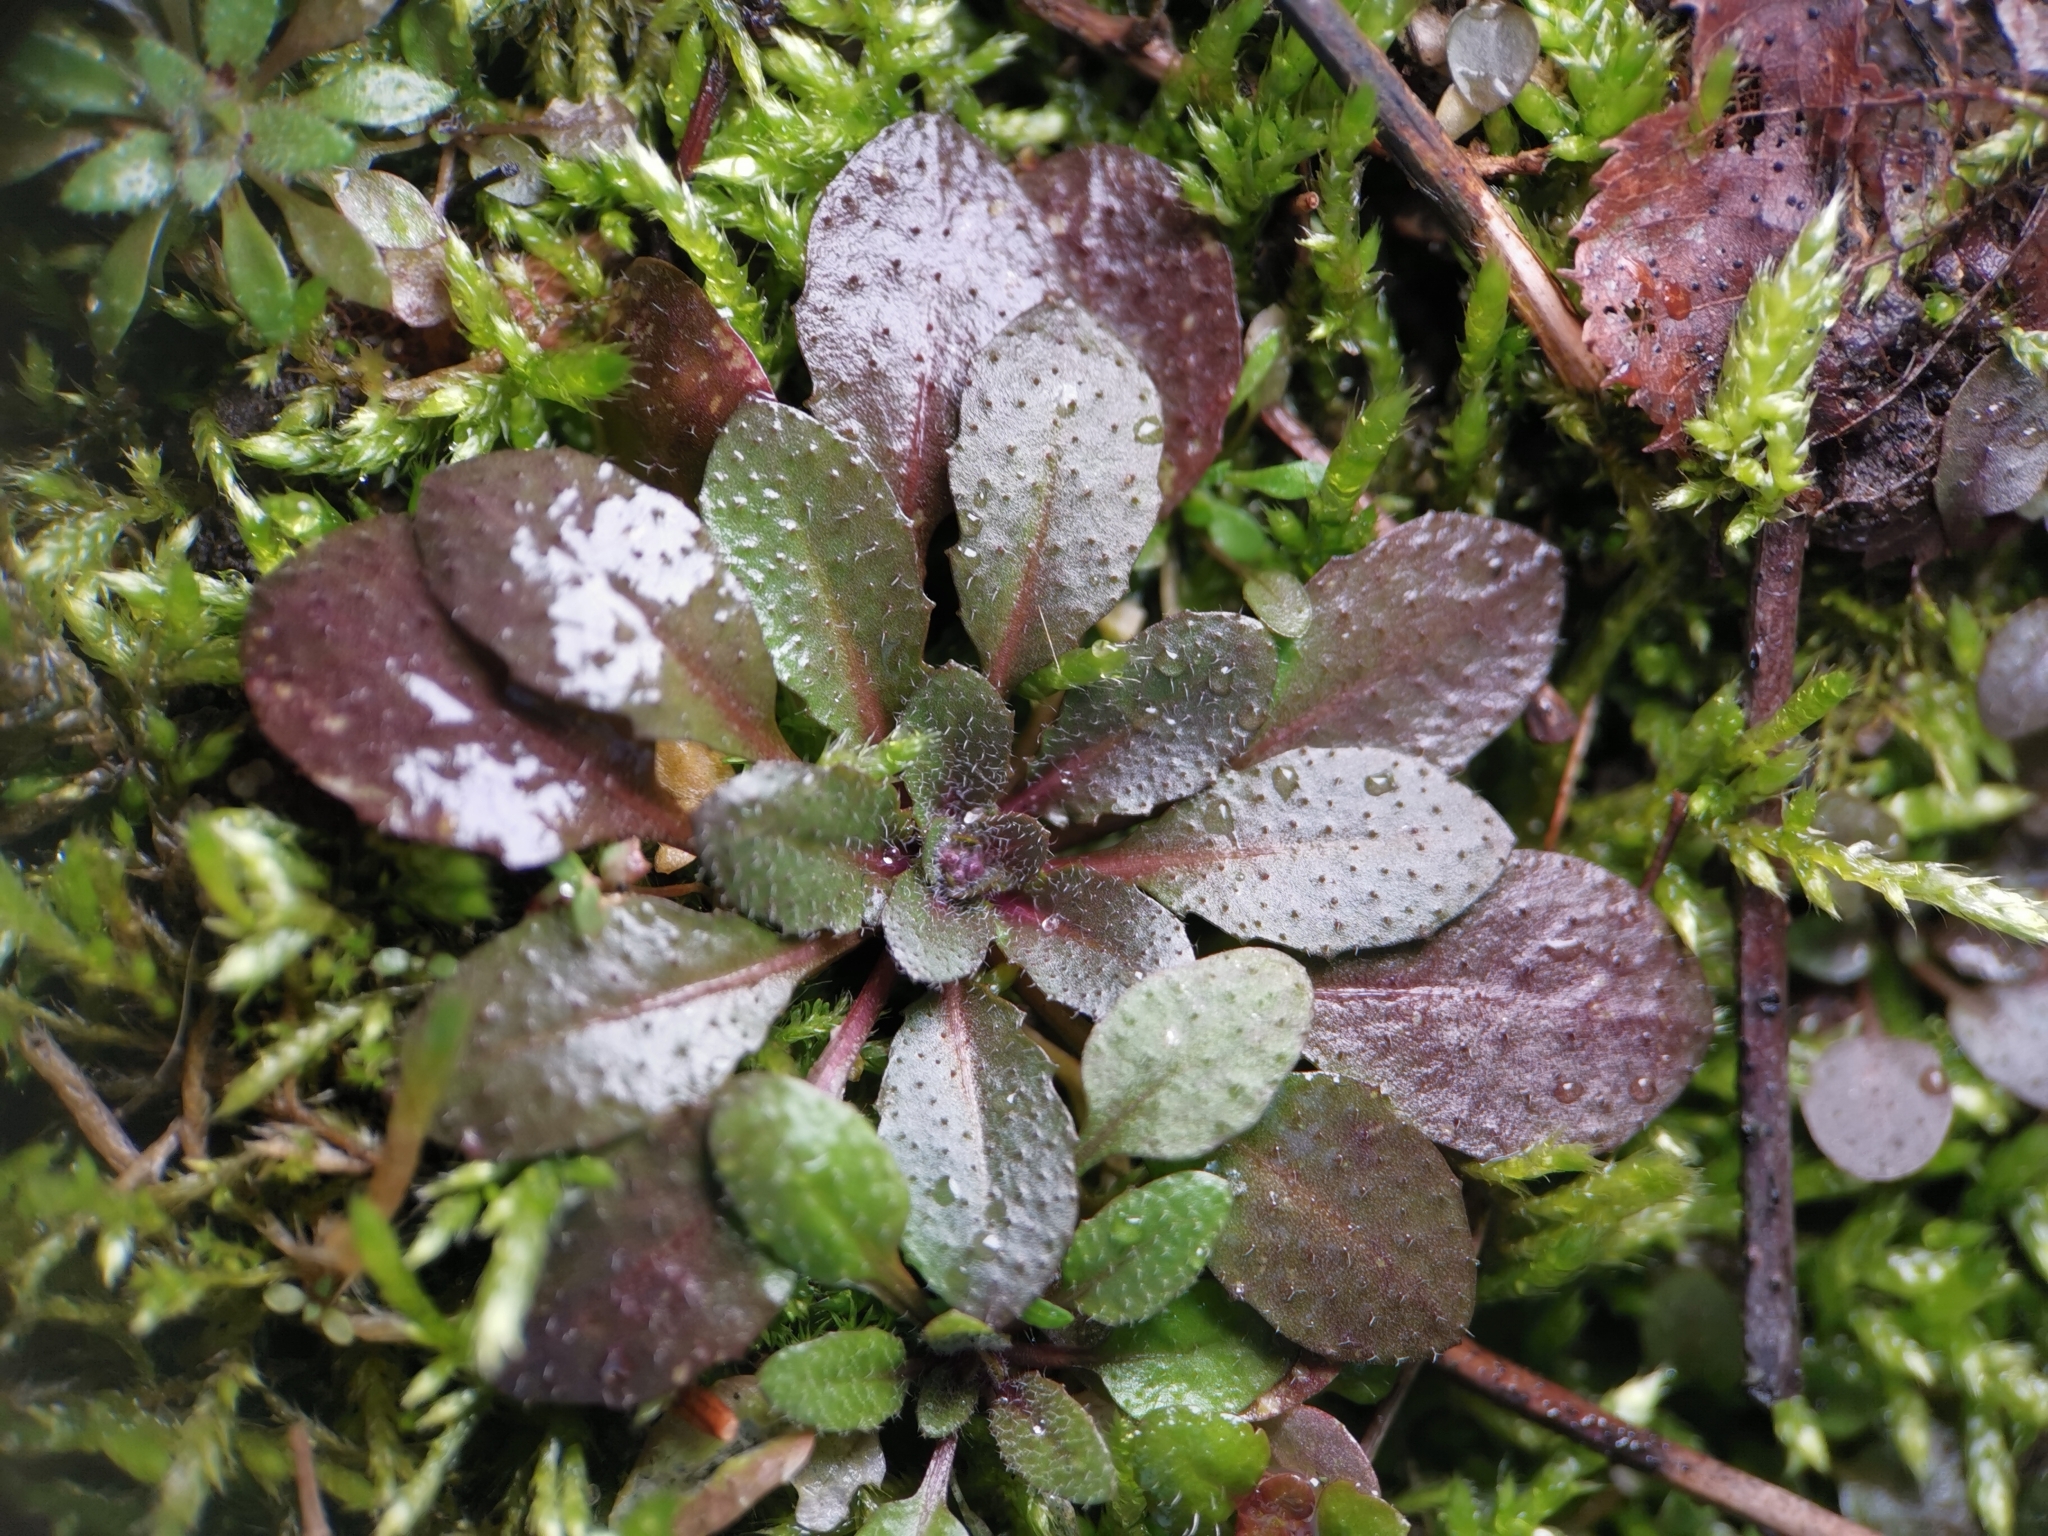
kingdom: Plantae
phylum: Tracheophyta
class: Magnoliopsida
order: Brassicales
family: Brassicaceae
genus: Arabidopsis
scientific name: Arabidopsis thaliana
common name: Thale cress
